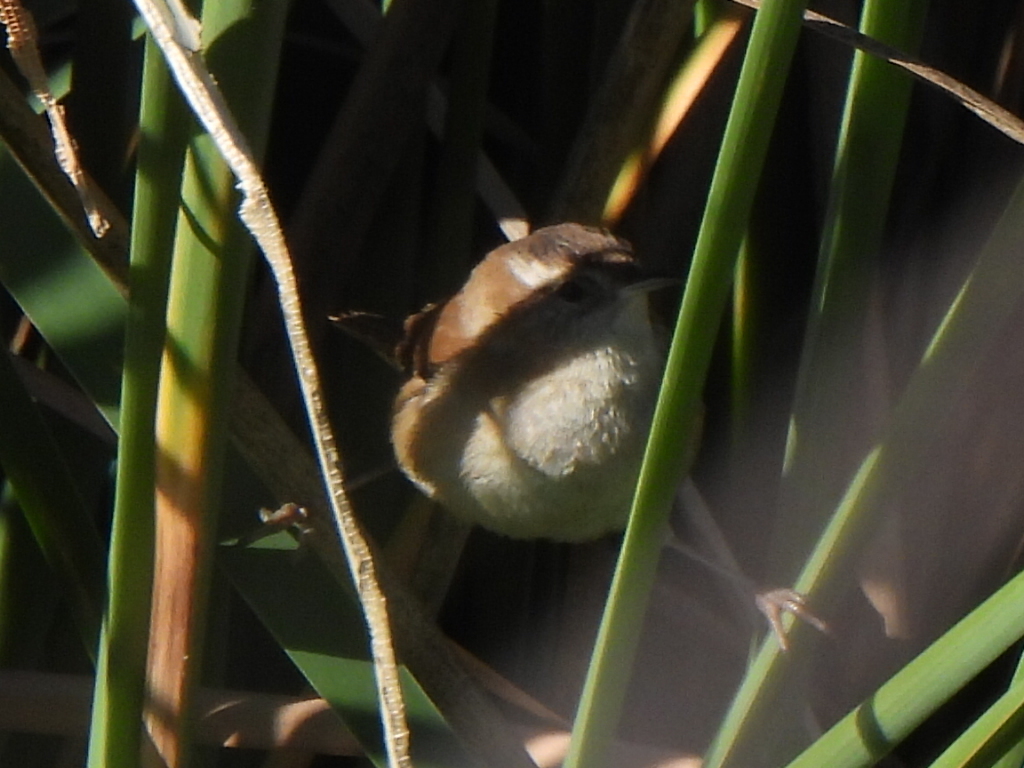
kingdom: Animalia
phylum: Chordata
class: Aves
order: Passeriformes
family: Troglodytidae
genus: Cistothorus
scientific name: Cistothorus palustris
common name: Marsh wren
